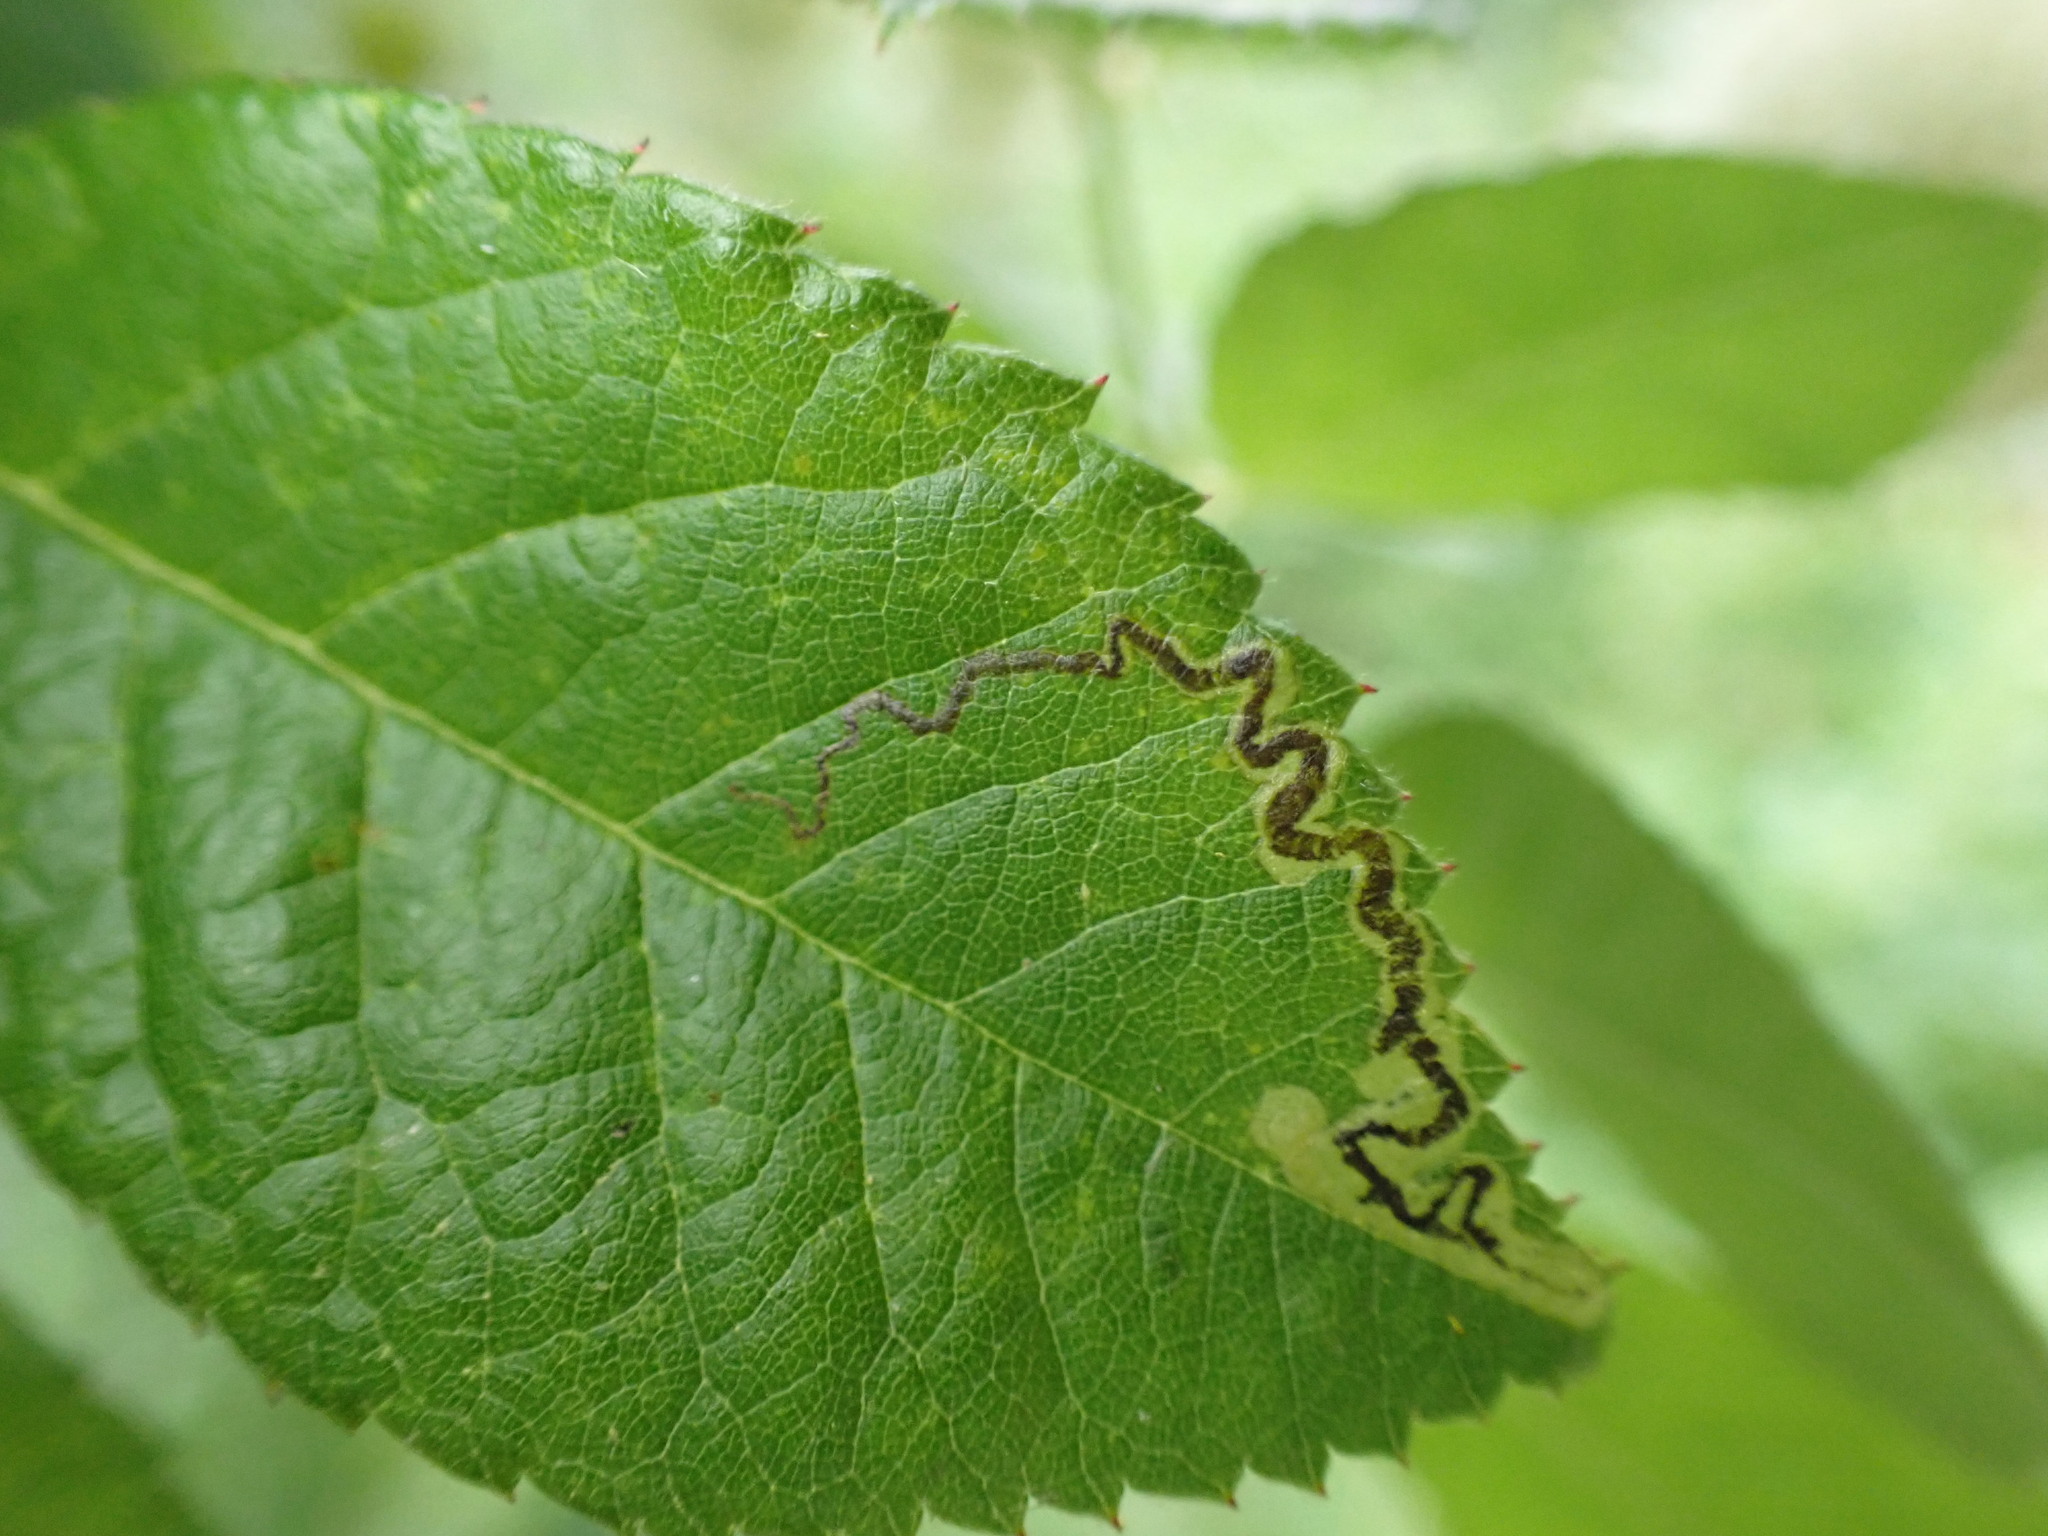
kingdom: Animalia
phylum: Arthropoda
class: Insecta
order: Lepidoptera
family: Nepticulidae
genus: Stigmella
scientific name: Stigmella rosaefoliella
